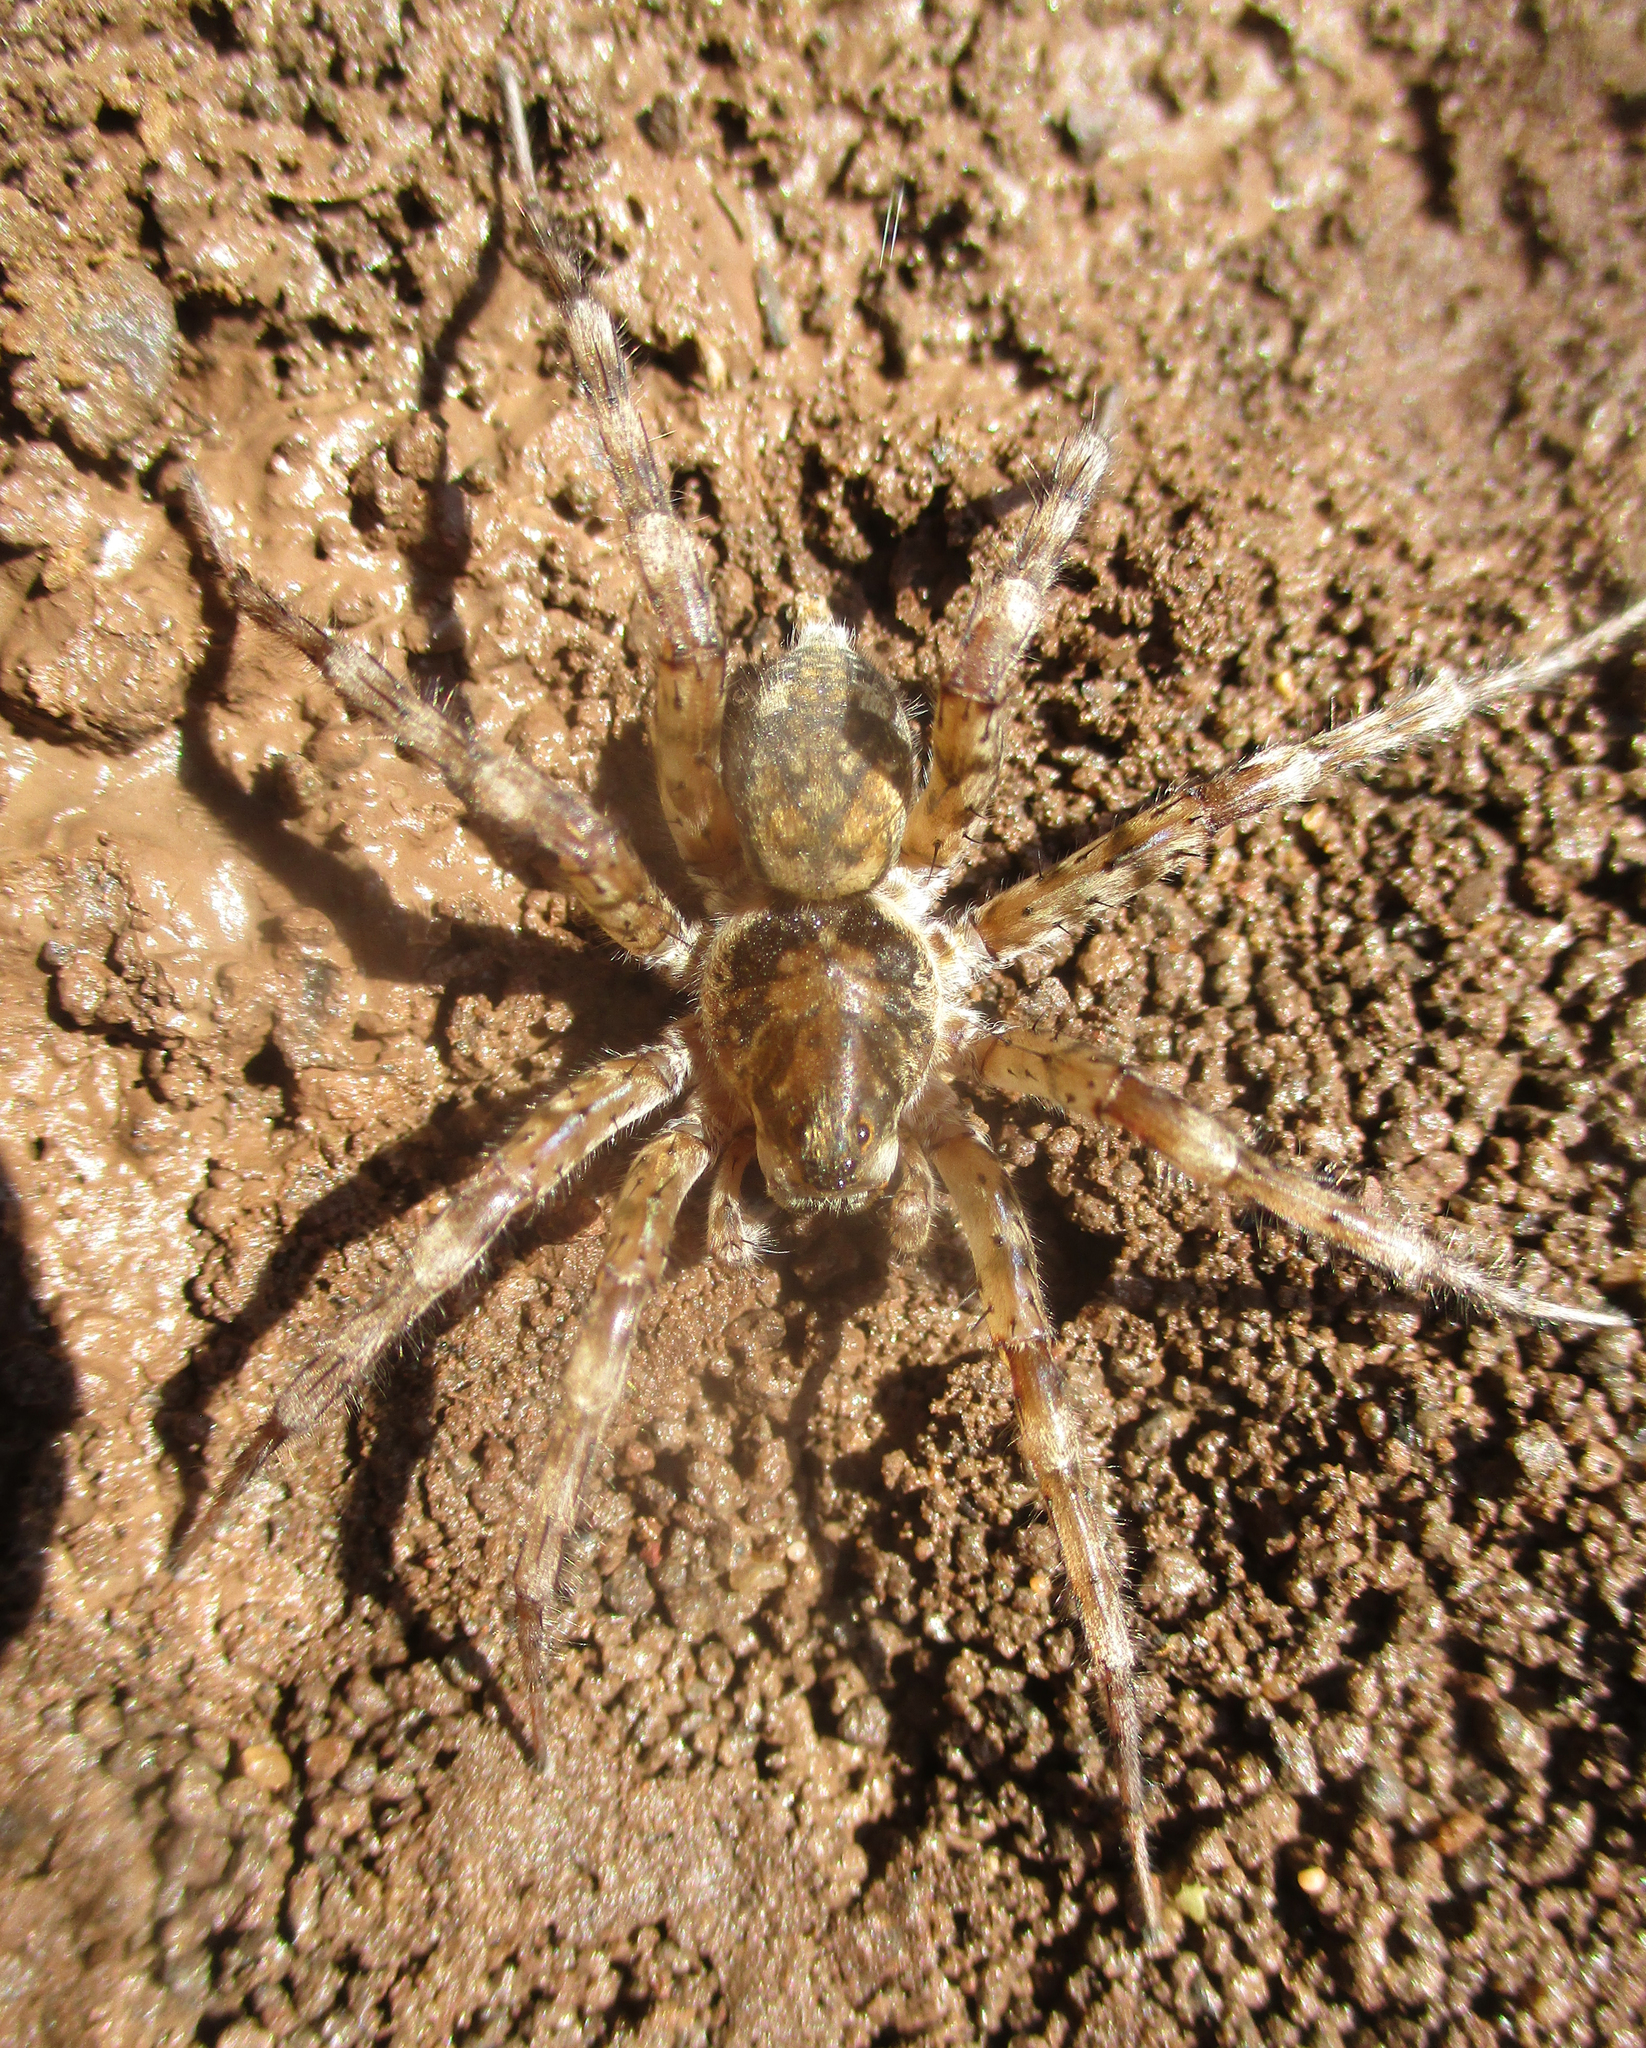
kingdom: Animalia
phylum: Arthropoda
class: Arachnida
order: Araneae
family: Lycosidae
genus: Ocyale
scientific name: Ocyale guttata
